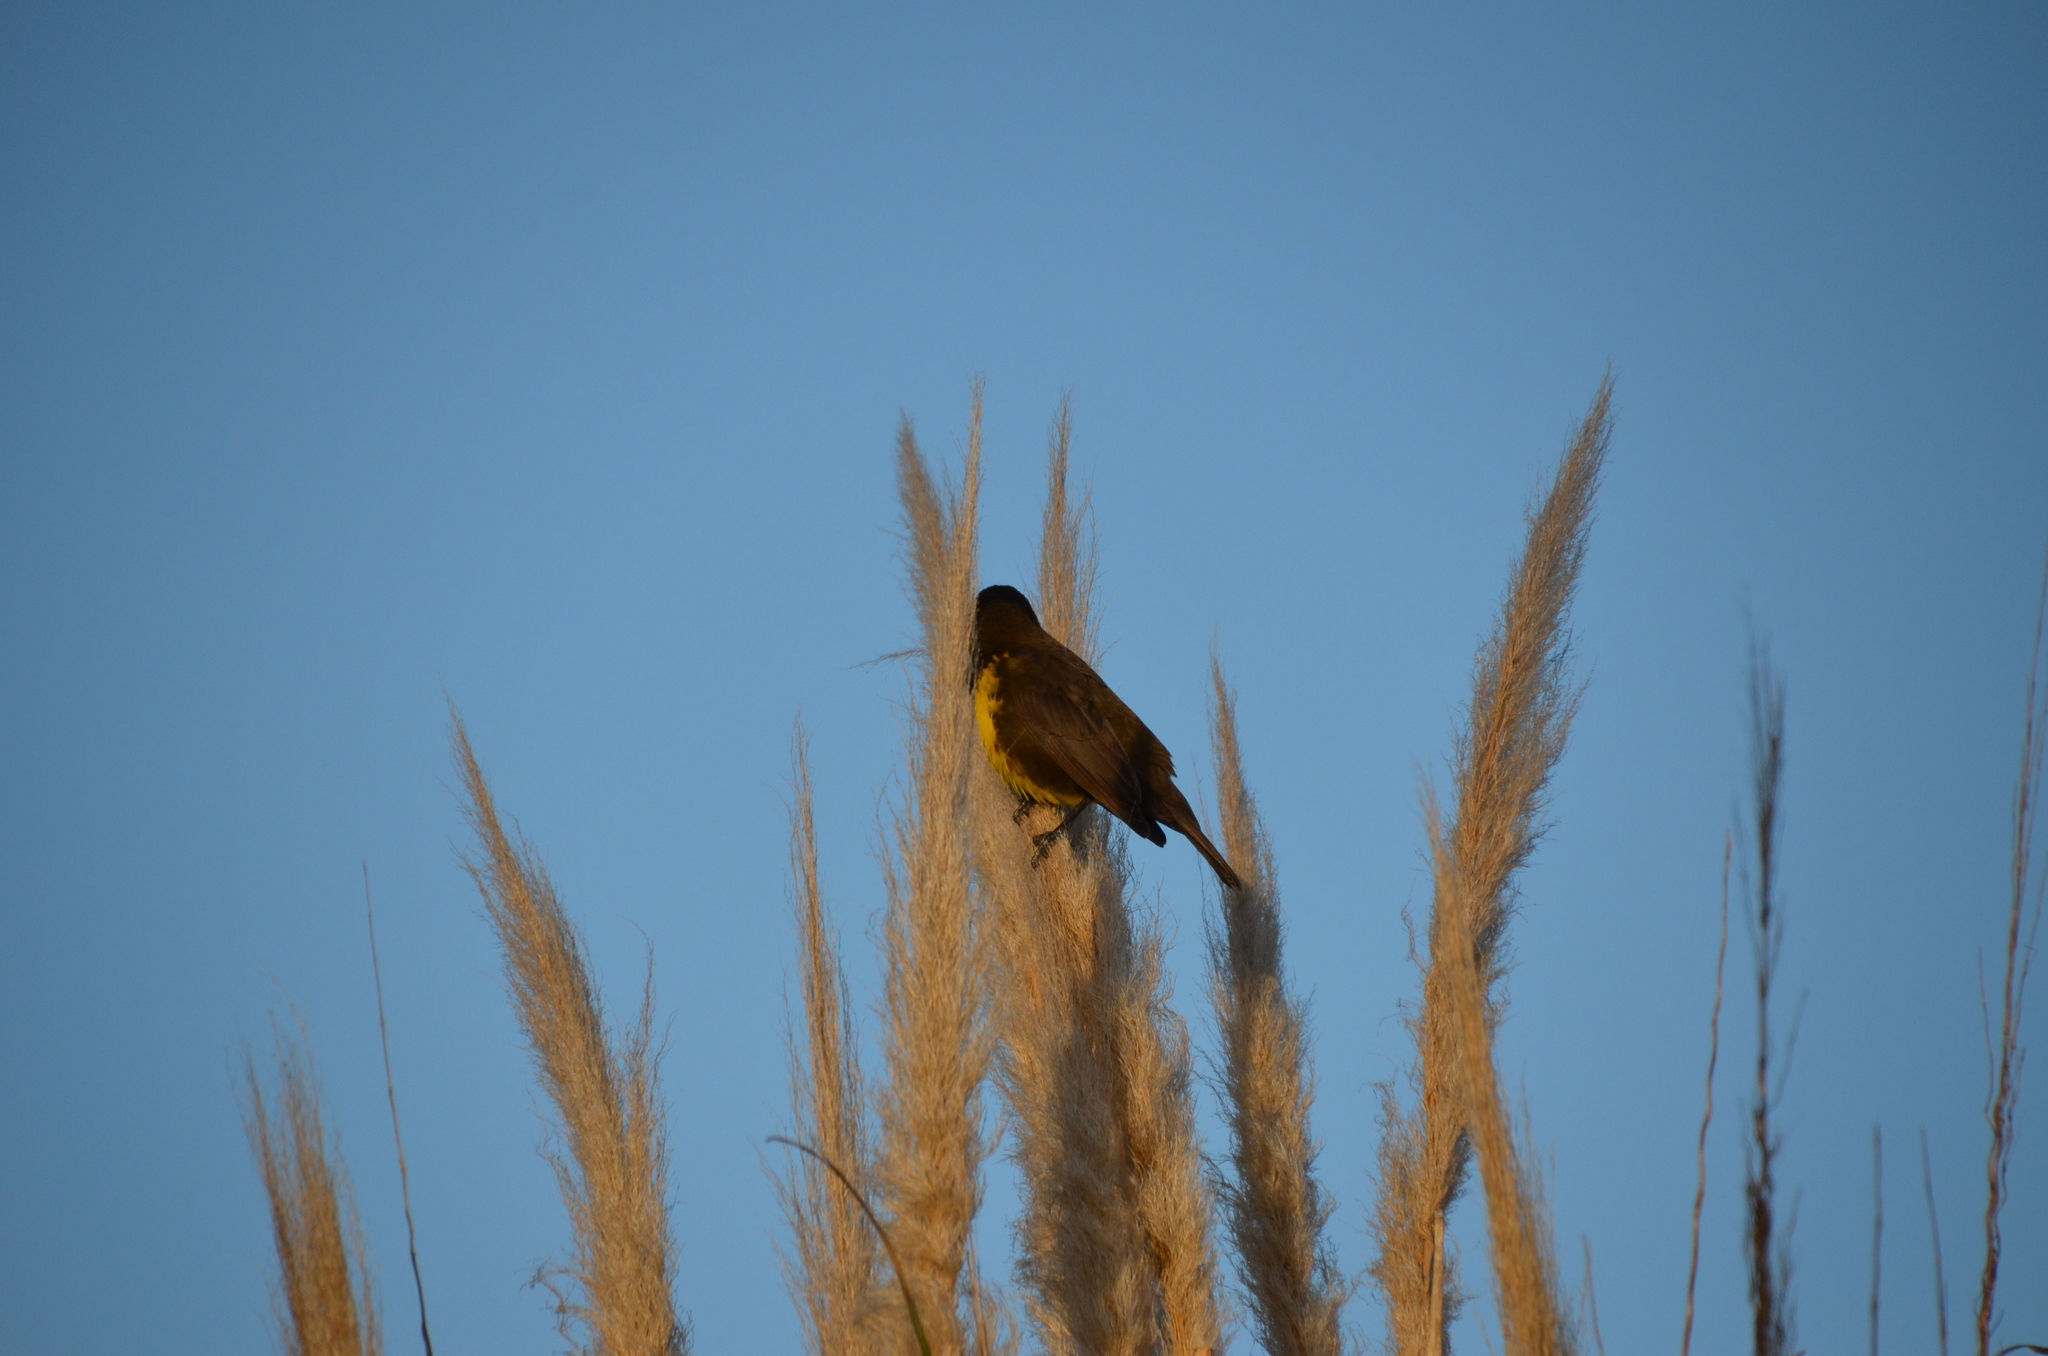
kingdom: Animalia
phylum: Chordata
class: Aves
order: Passeriformes
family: Icteridae
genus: Pseudoleistes
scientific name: Pseudoleistes virescens
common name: Brown-and-yellow marshbird
